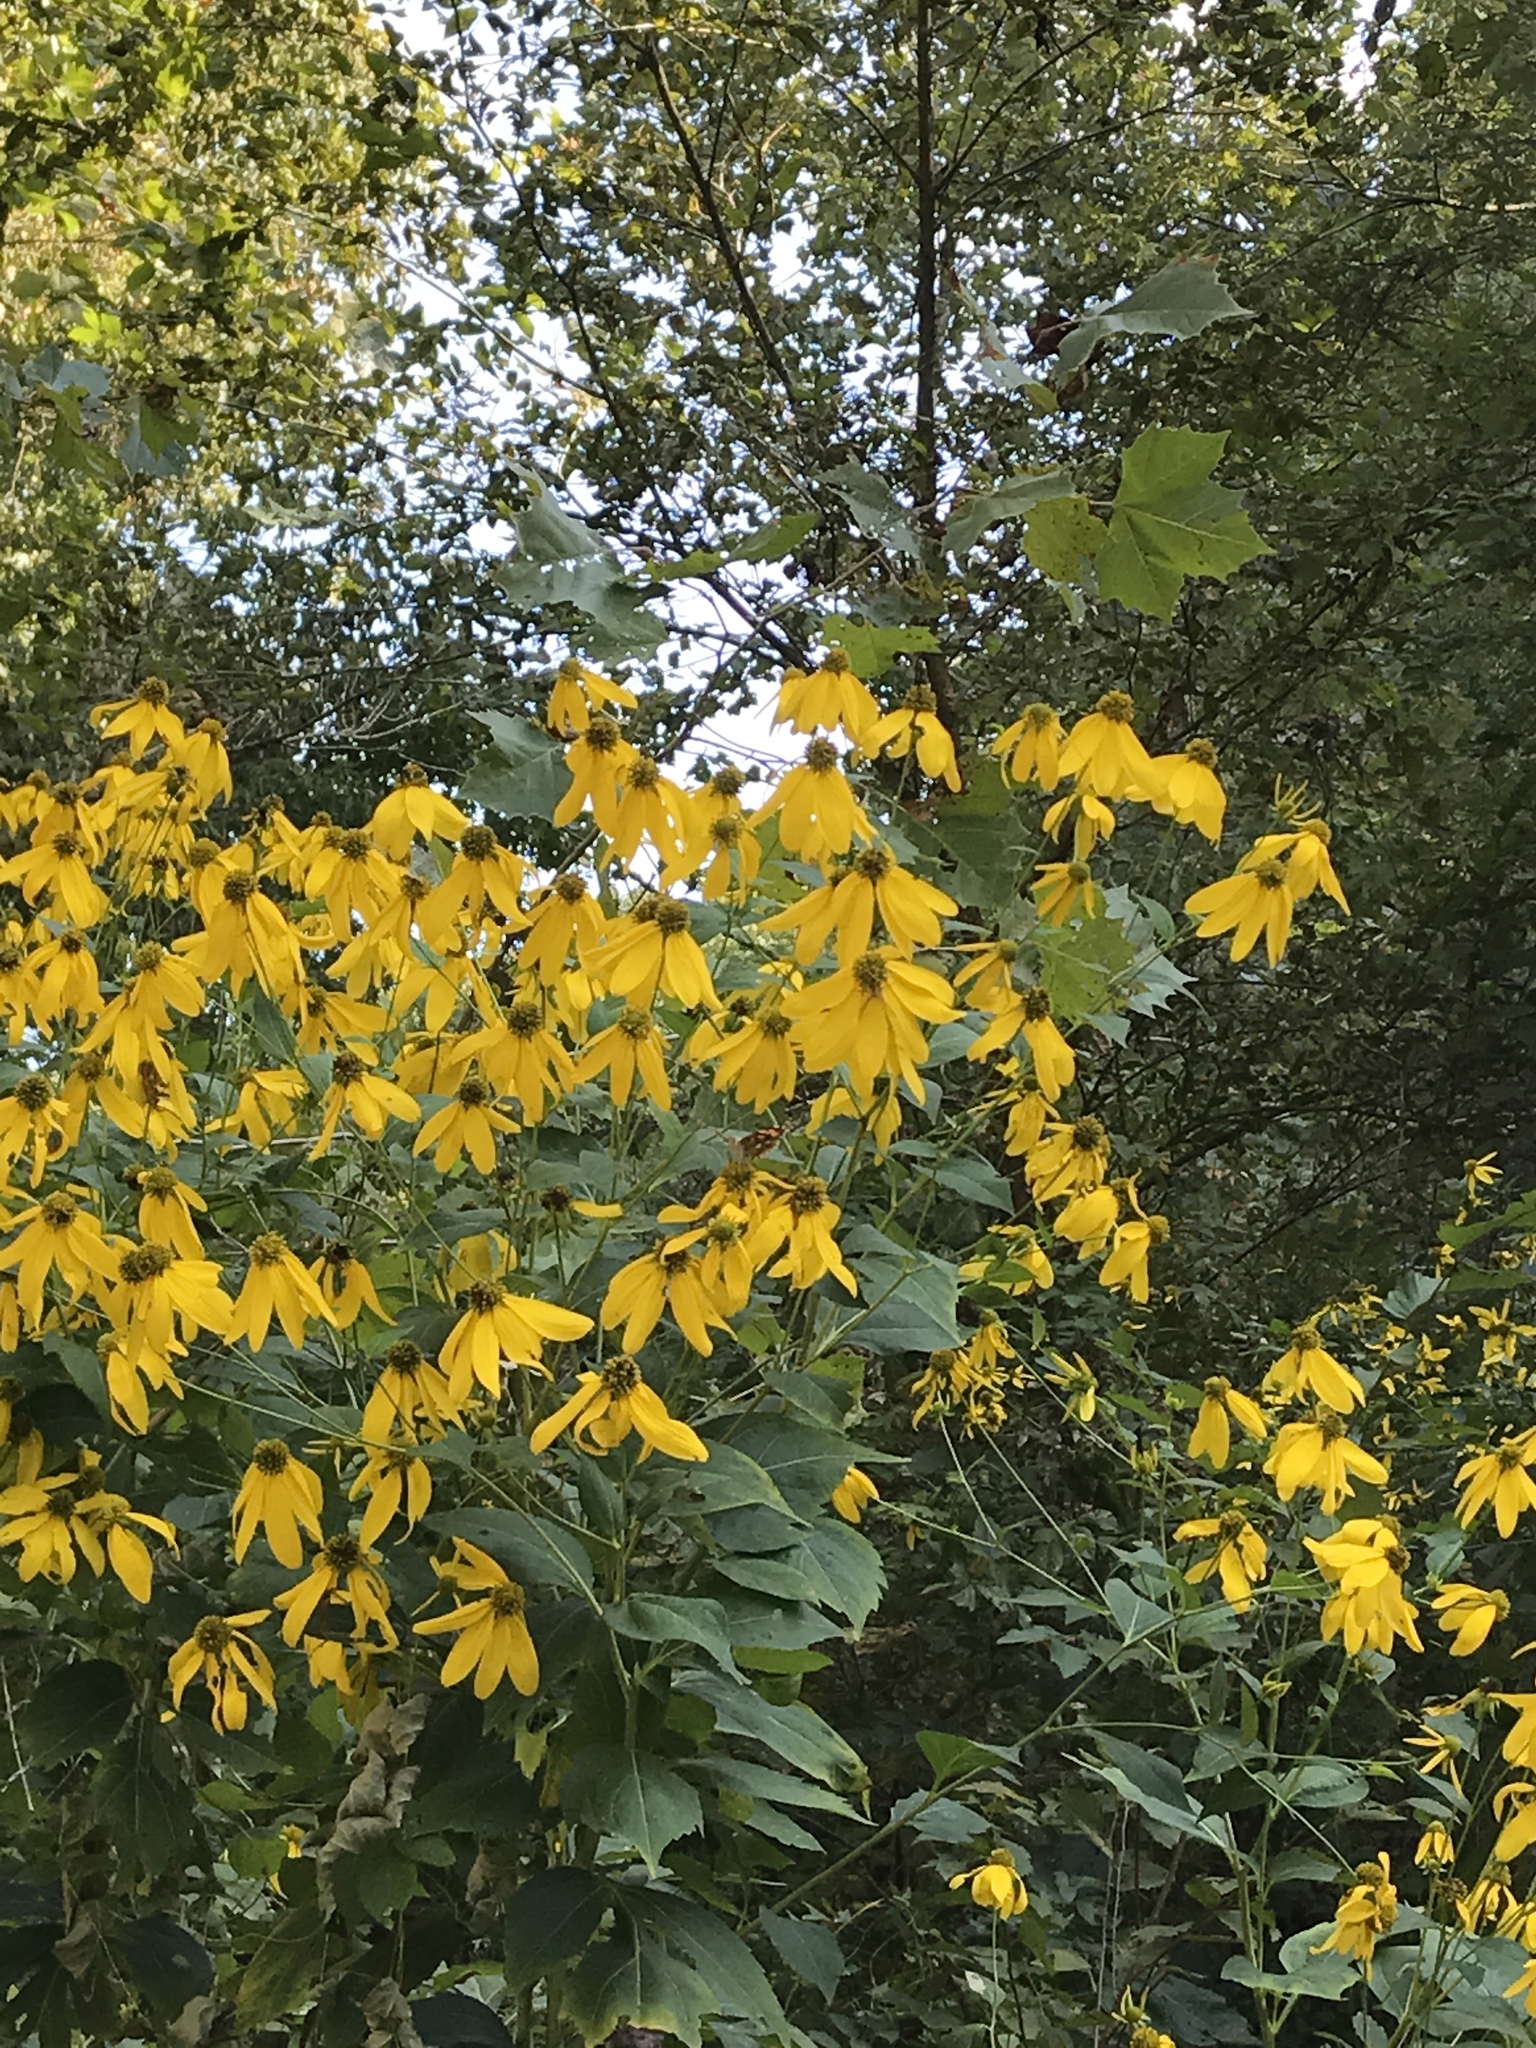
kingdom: Plantae
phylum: Tracheophyta
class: Magnoliopsida
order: Asterales
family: Asteraceae
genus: Rudbeckia
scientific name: Rudbeckia laciniata
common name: Coneflower
